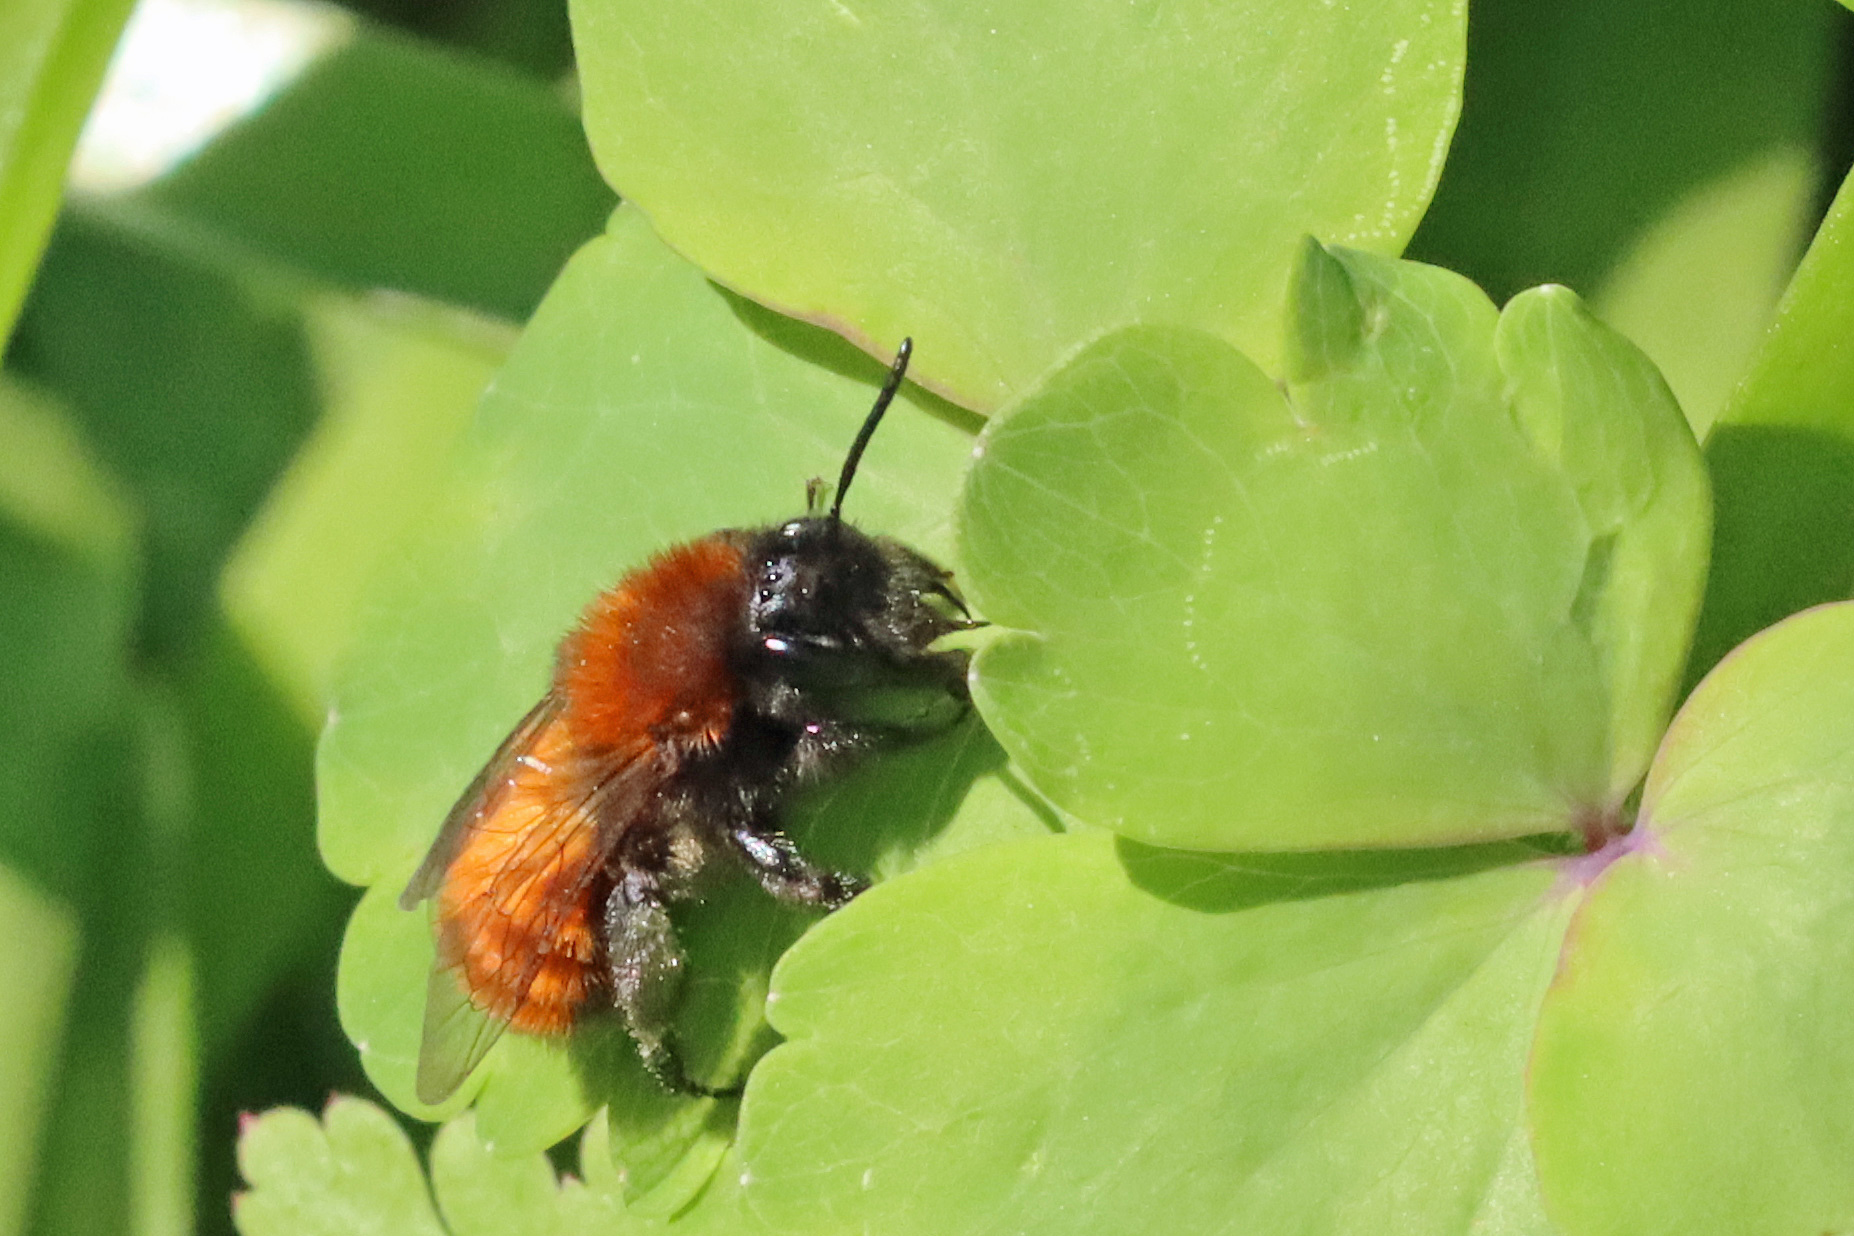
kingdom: Animalia
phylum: Arthropoda
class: Insecta
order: Hymenoptera
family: Andrenidae
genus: Andrena
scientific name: Andrena fulva
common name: Tawny mining bee
